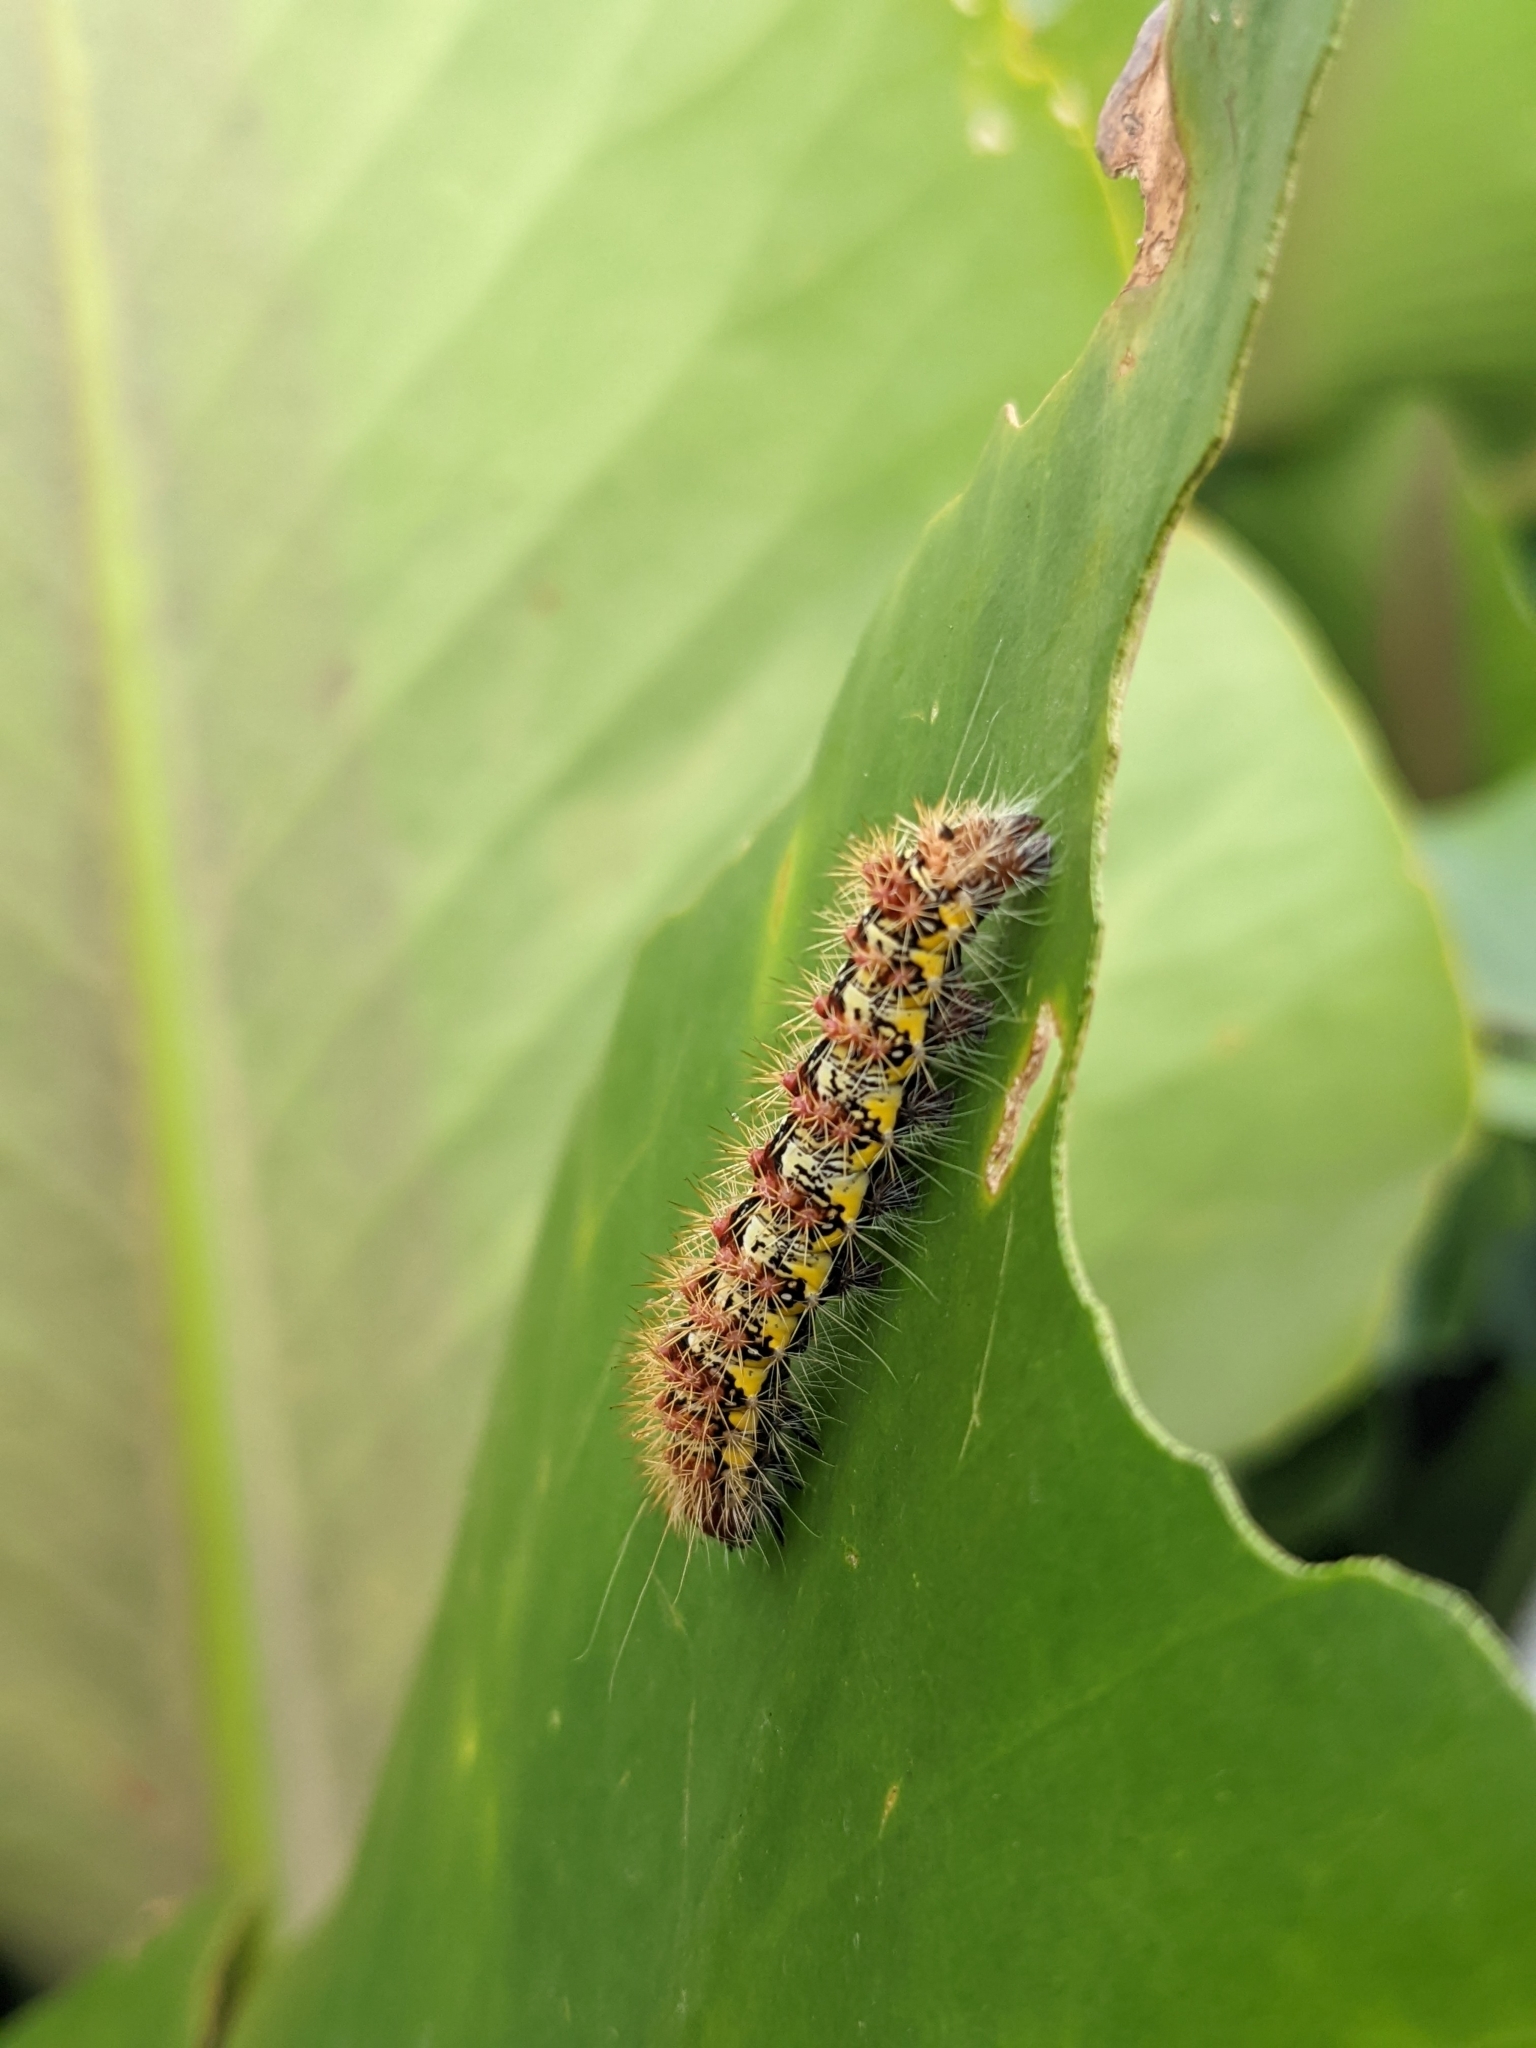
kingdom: Animalia
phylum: Arthropoda
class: Insecta
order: Lepidoptera
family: Noctuidae
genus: Acronicta
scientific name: Acronicta oblinita
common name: Smeared dagger
